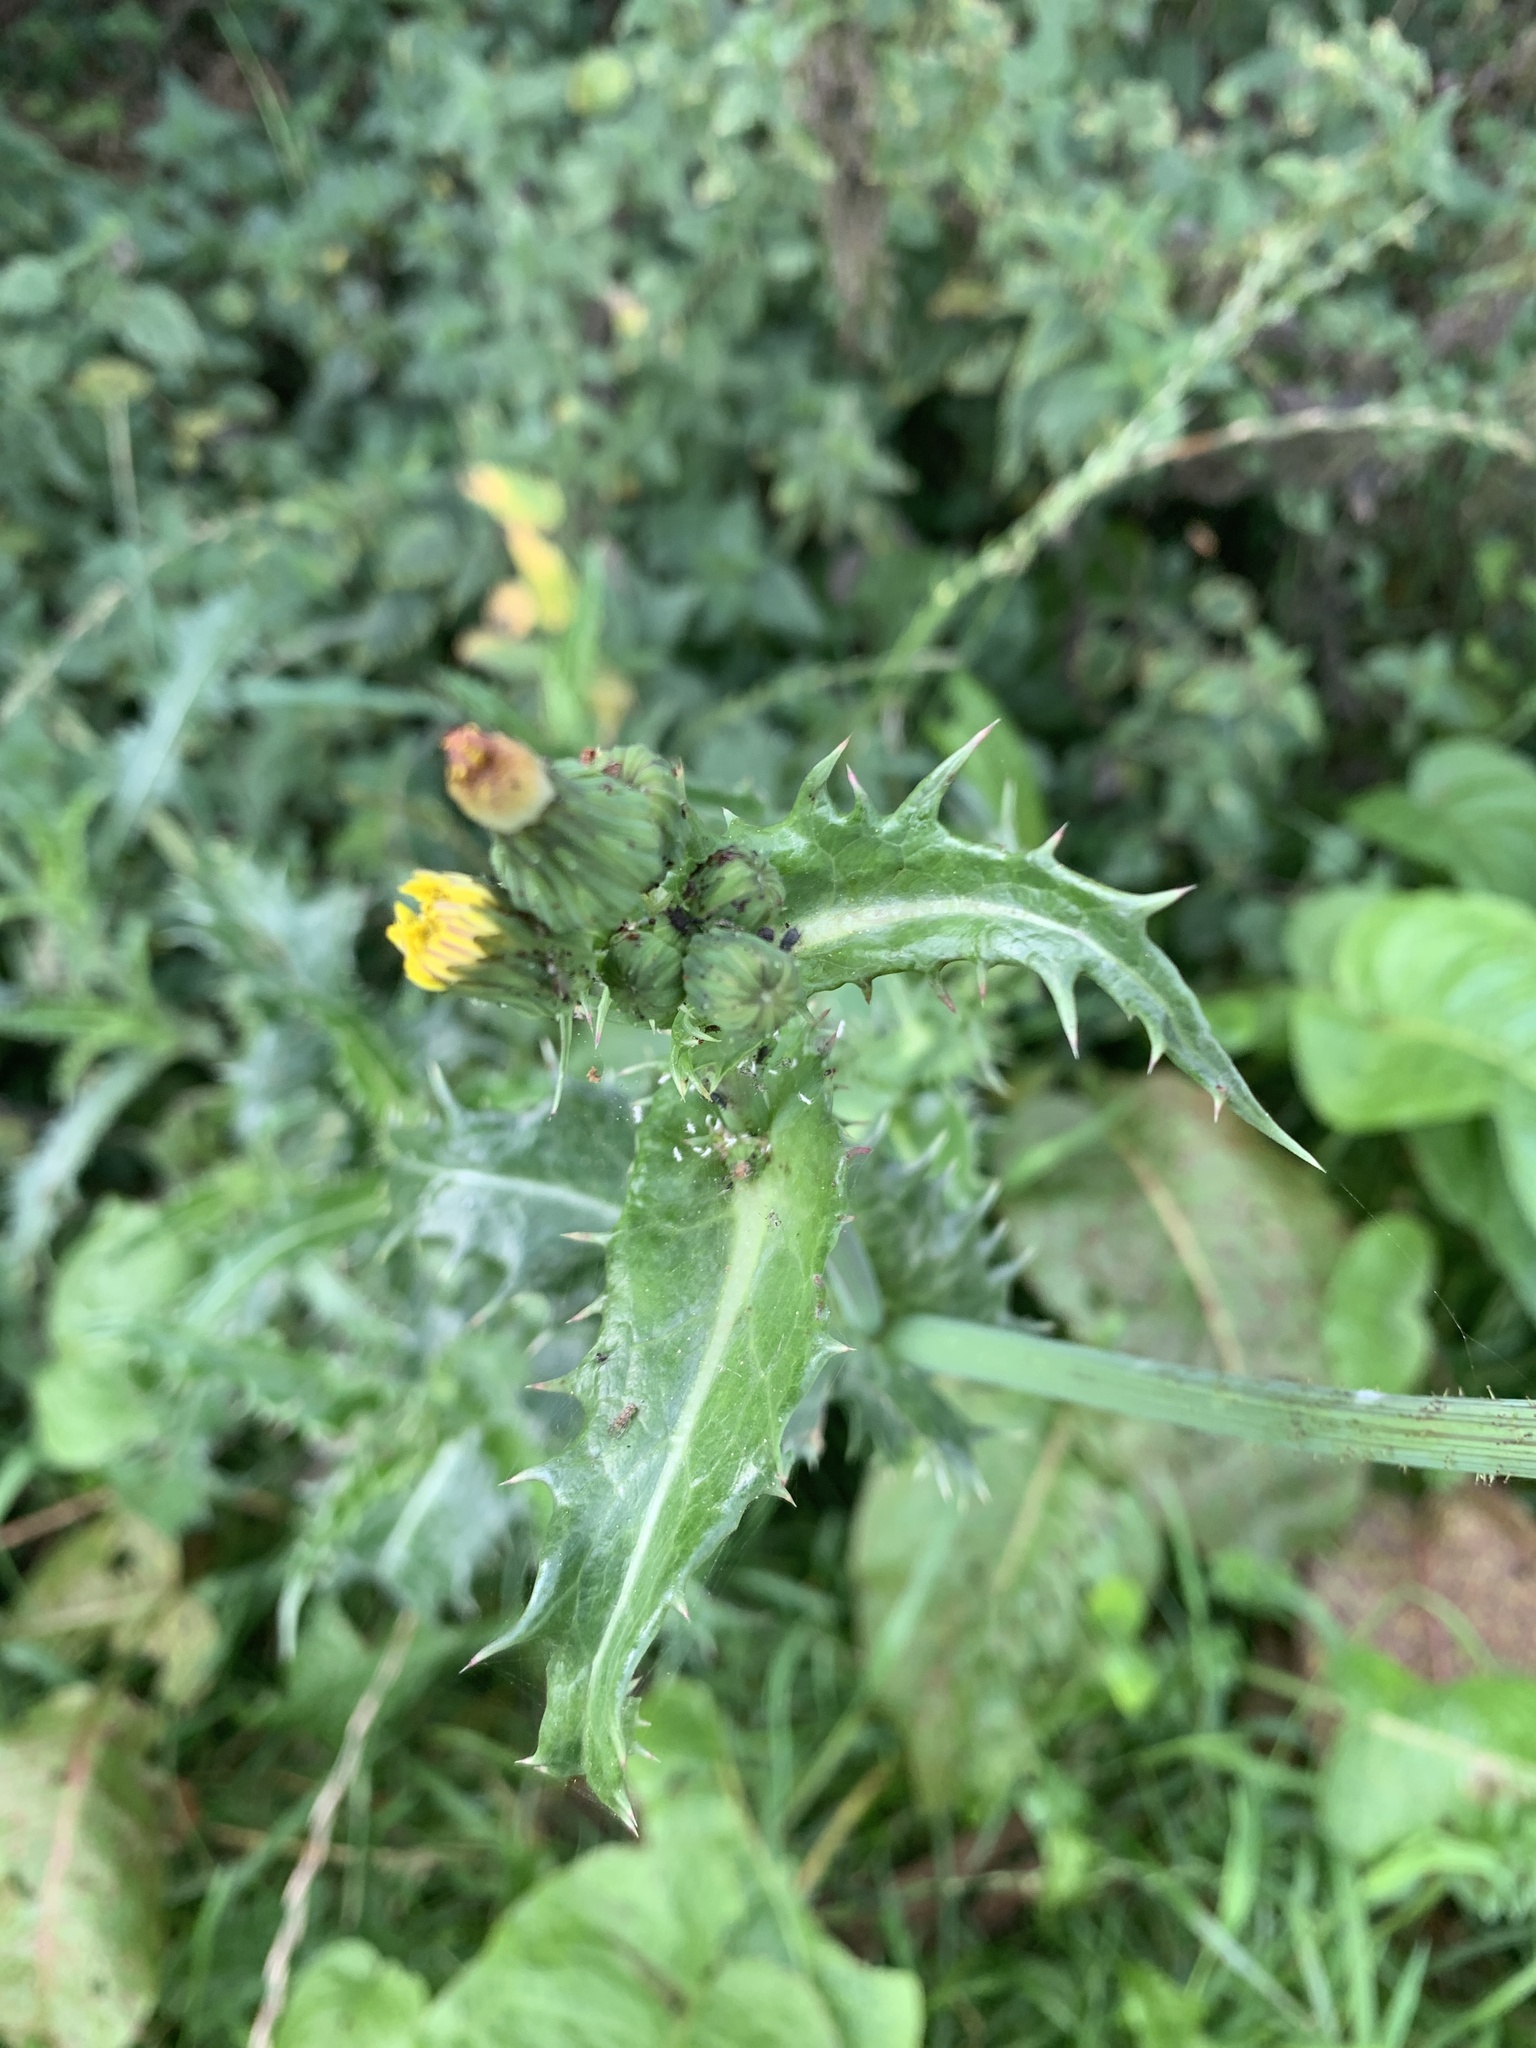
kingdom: Plantae
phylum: Tracheophyta
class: Magnoliopsida
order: Asterales
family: Asteraceae
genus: Sonchus
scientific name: Sonchus asper
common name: Prickly sow-thistle
